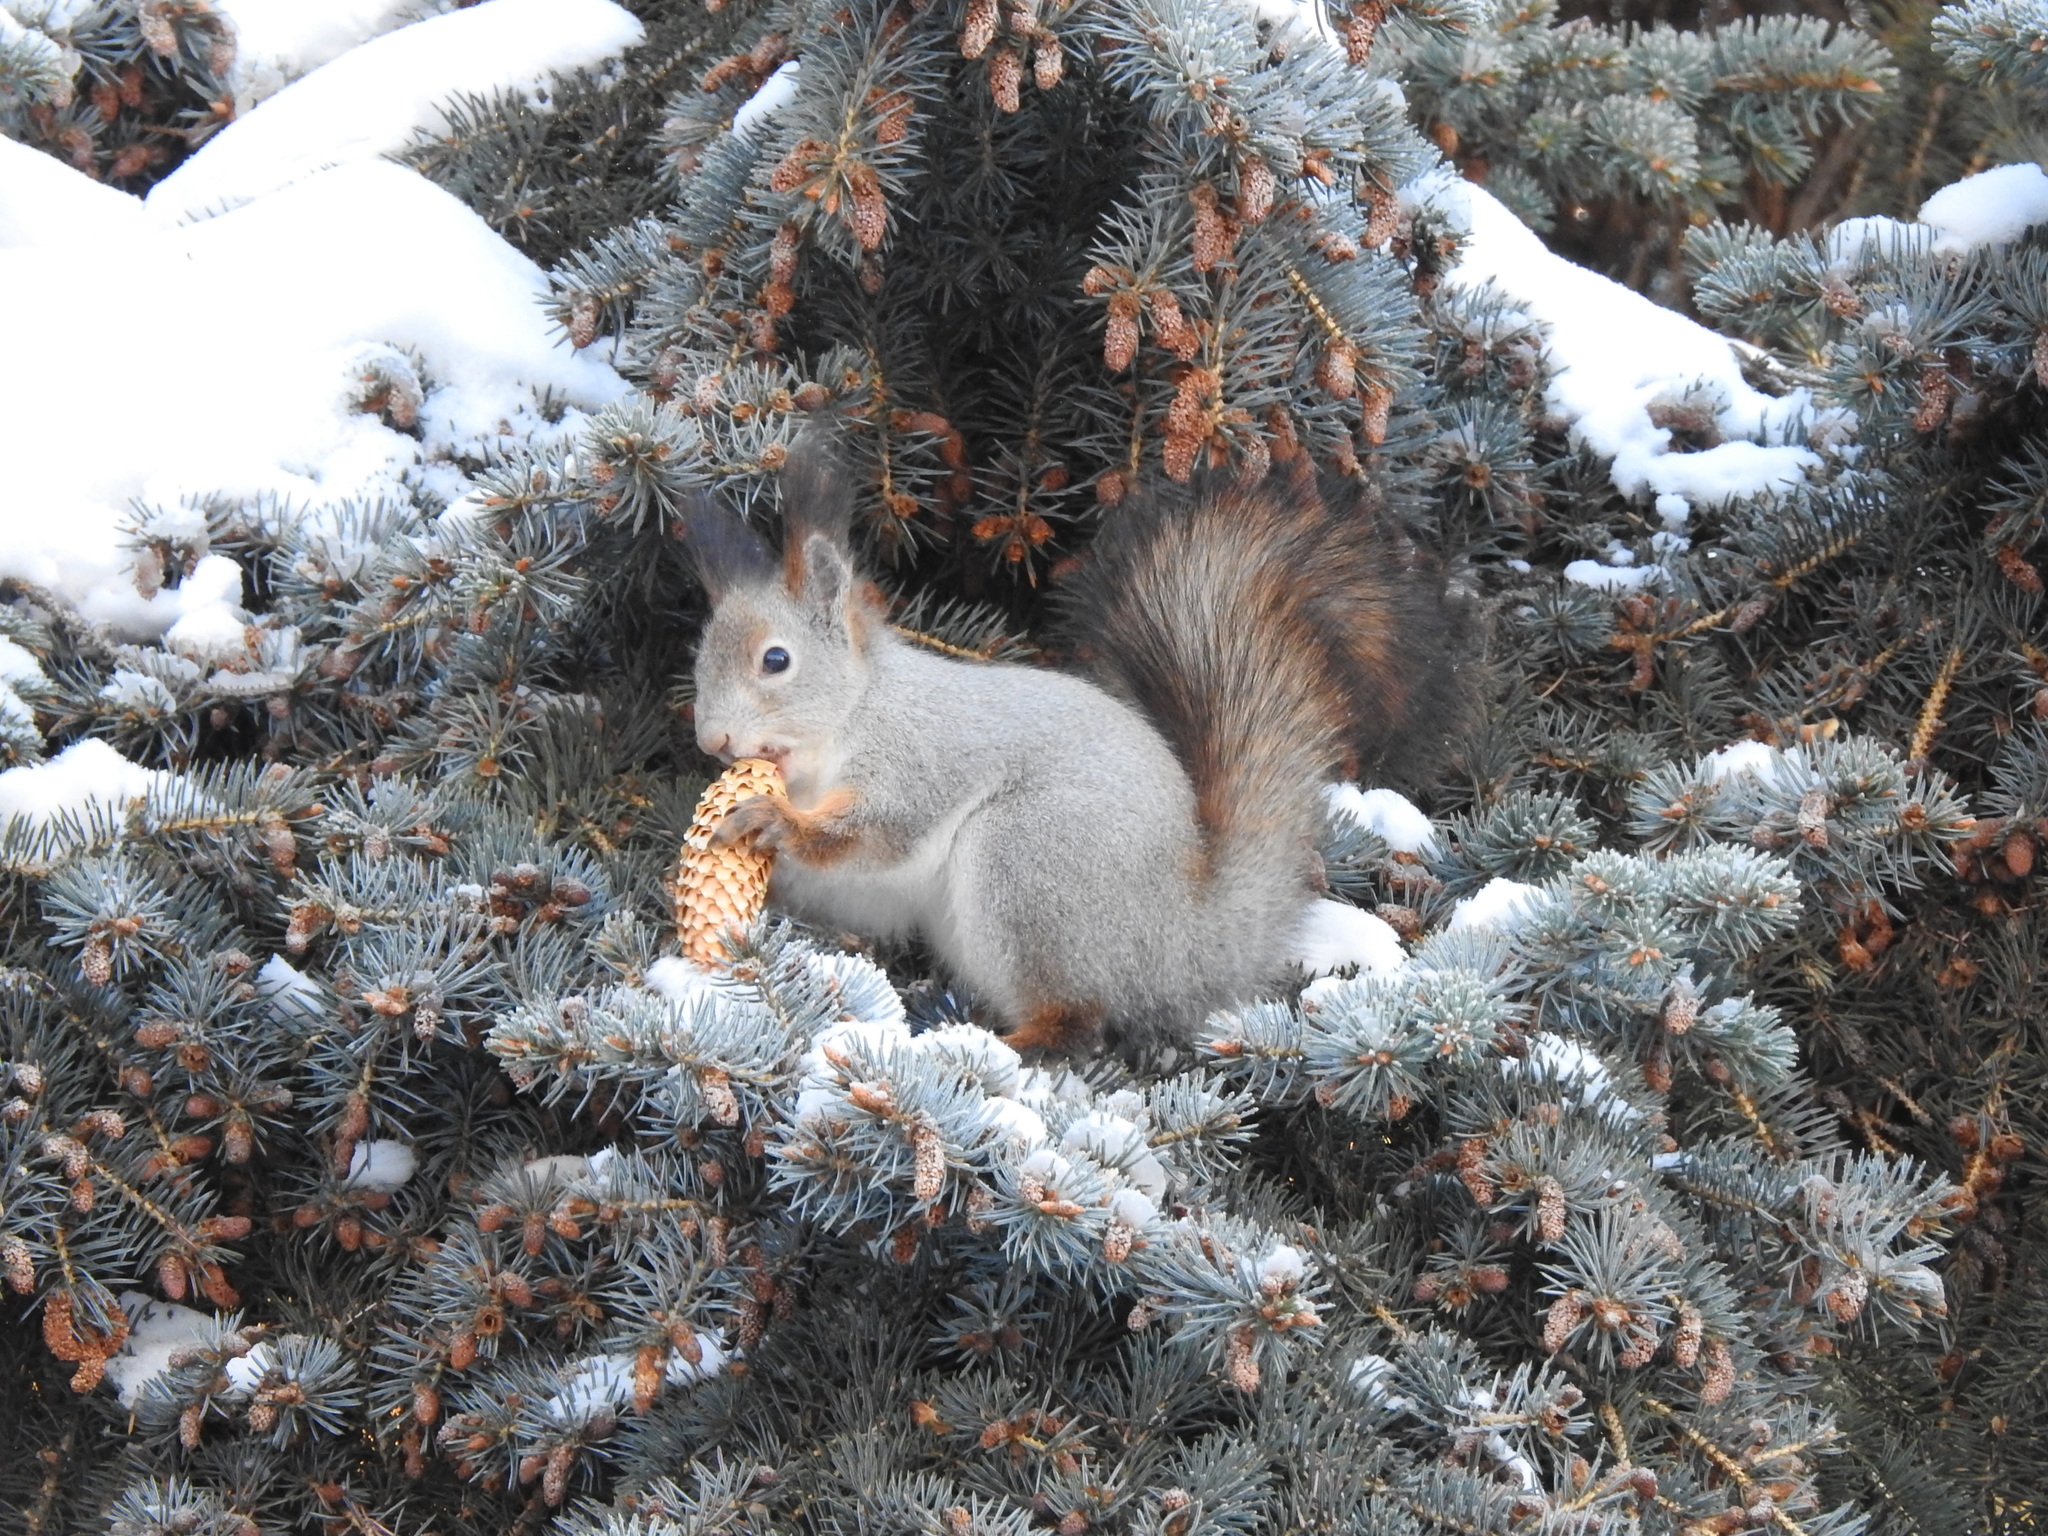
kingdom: Animalia
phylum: Chordata
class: Mammalia
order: Rodentia
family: Sciuridae
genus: Sciurus
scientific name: Sciurus vulgaris
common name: Eurasian red squirrel
